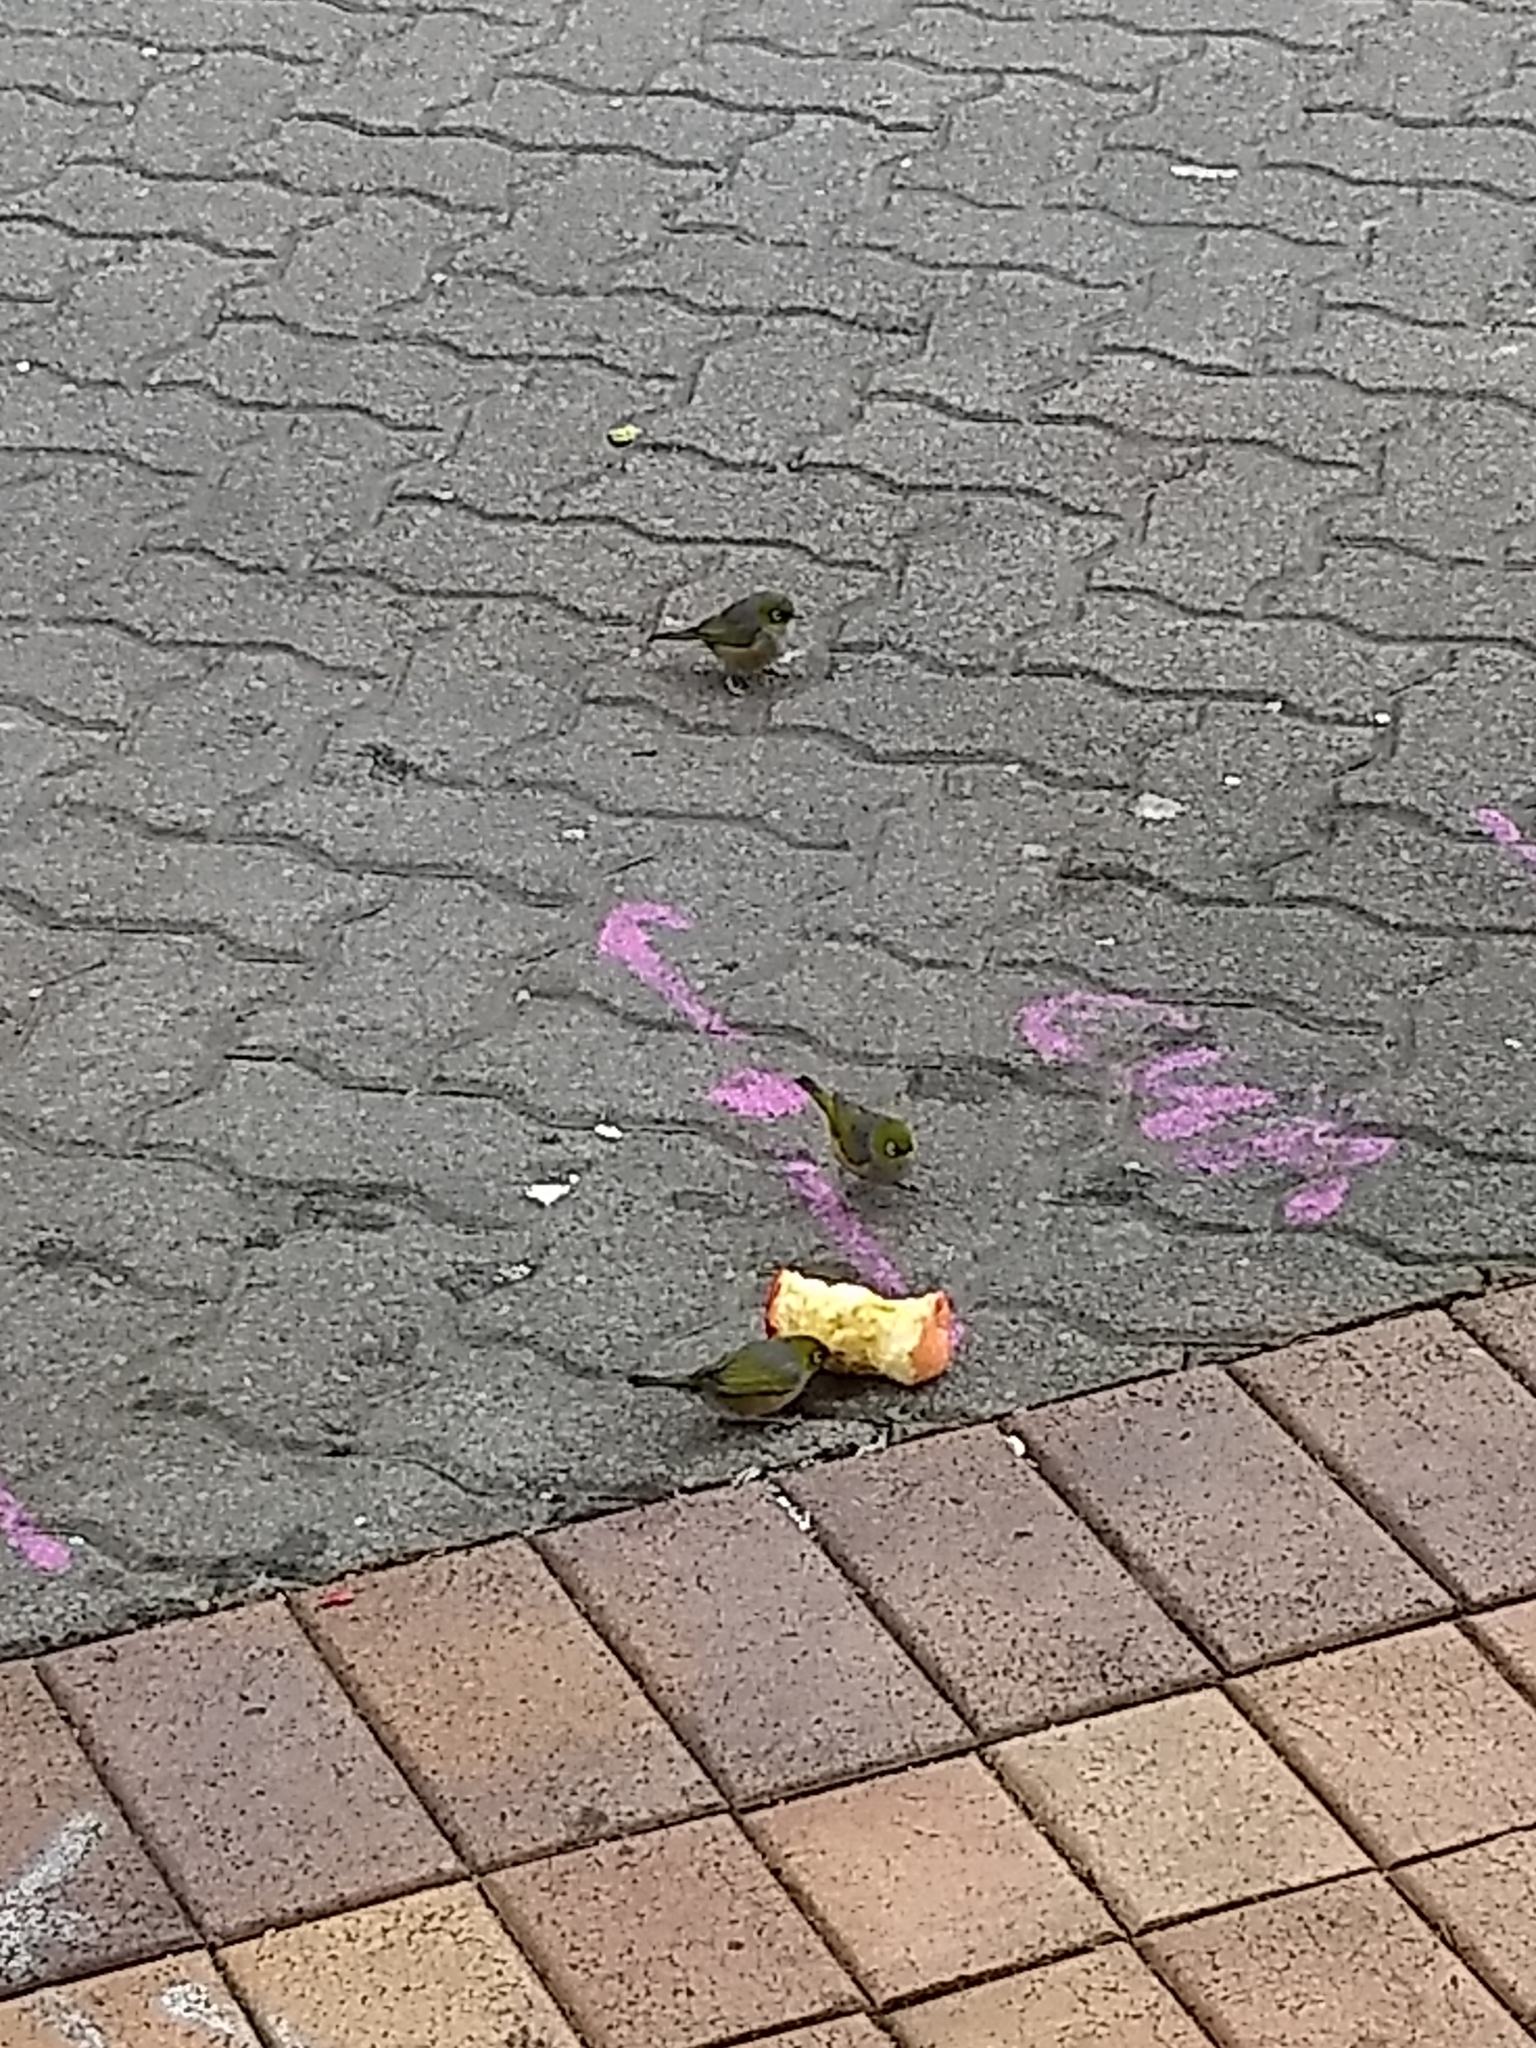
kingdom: Animalia
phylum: Chordata
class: Aves
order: Passeriformes
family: Zosteropidae
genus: Zosterops
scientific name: Zosterops lateralis
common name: Silvereye
